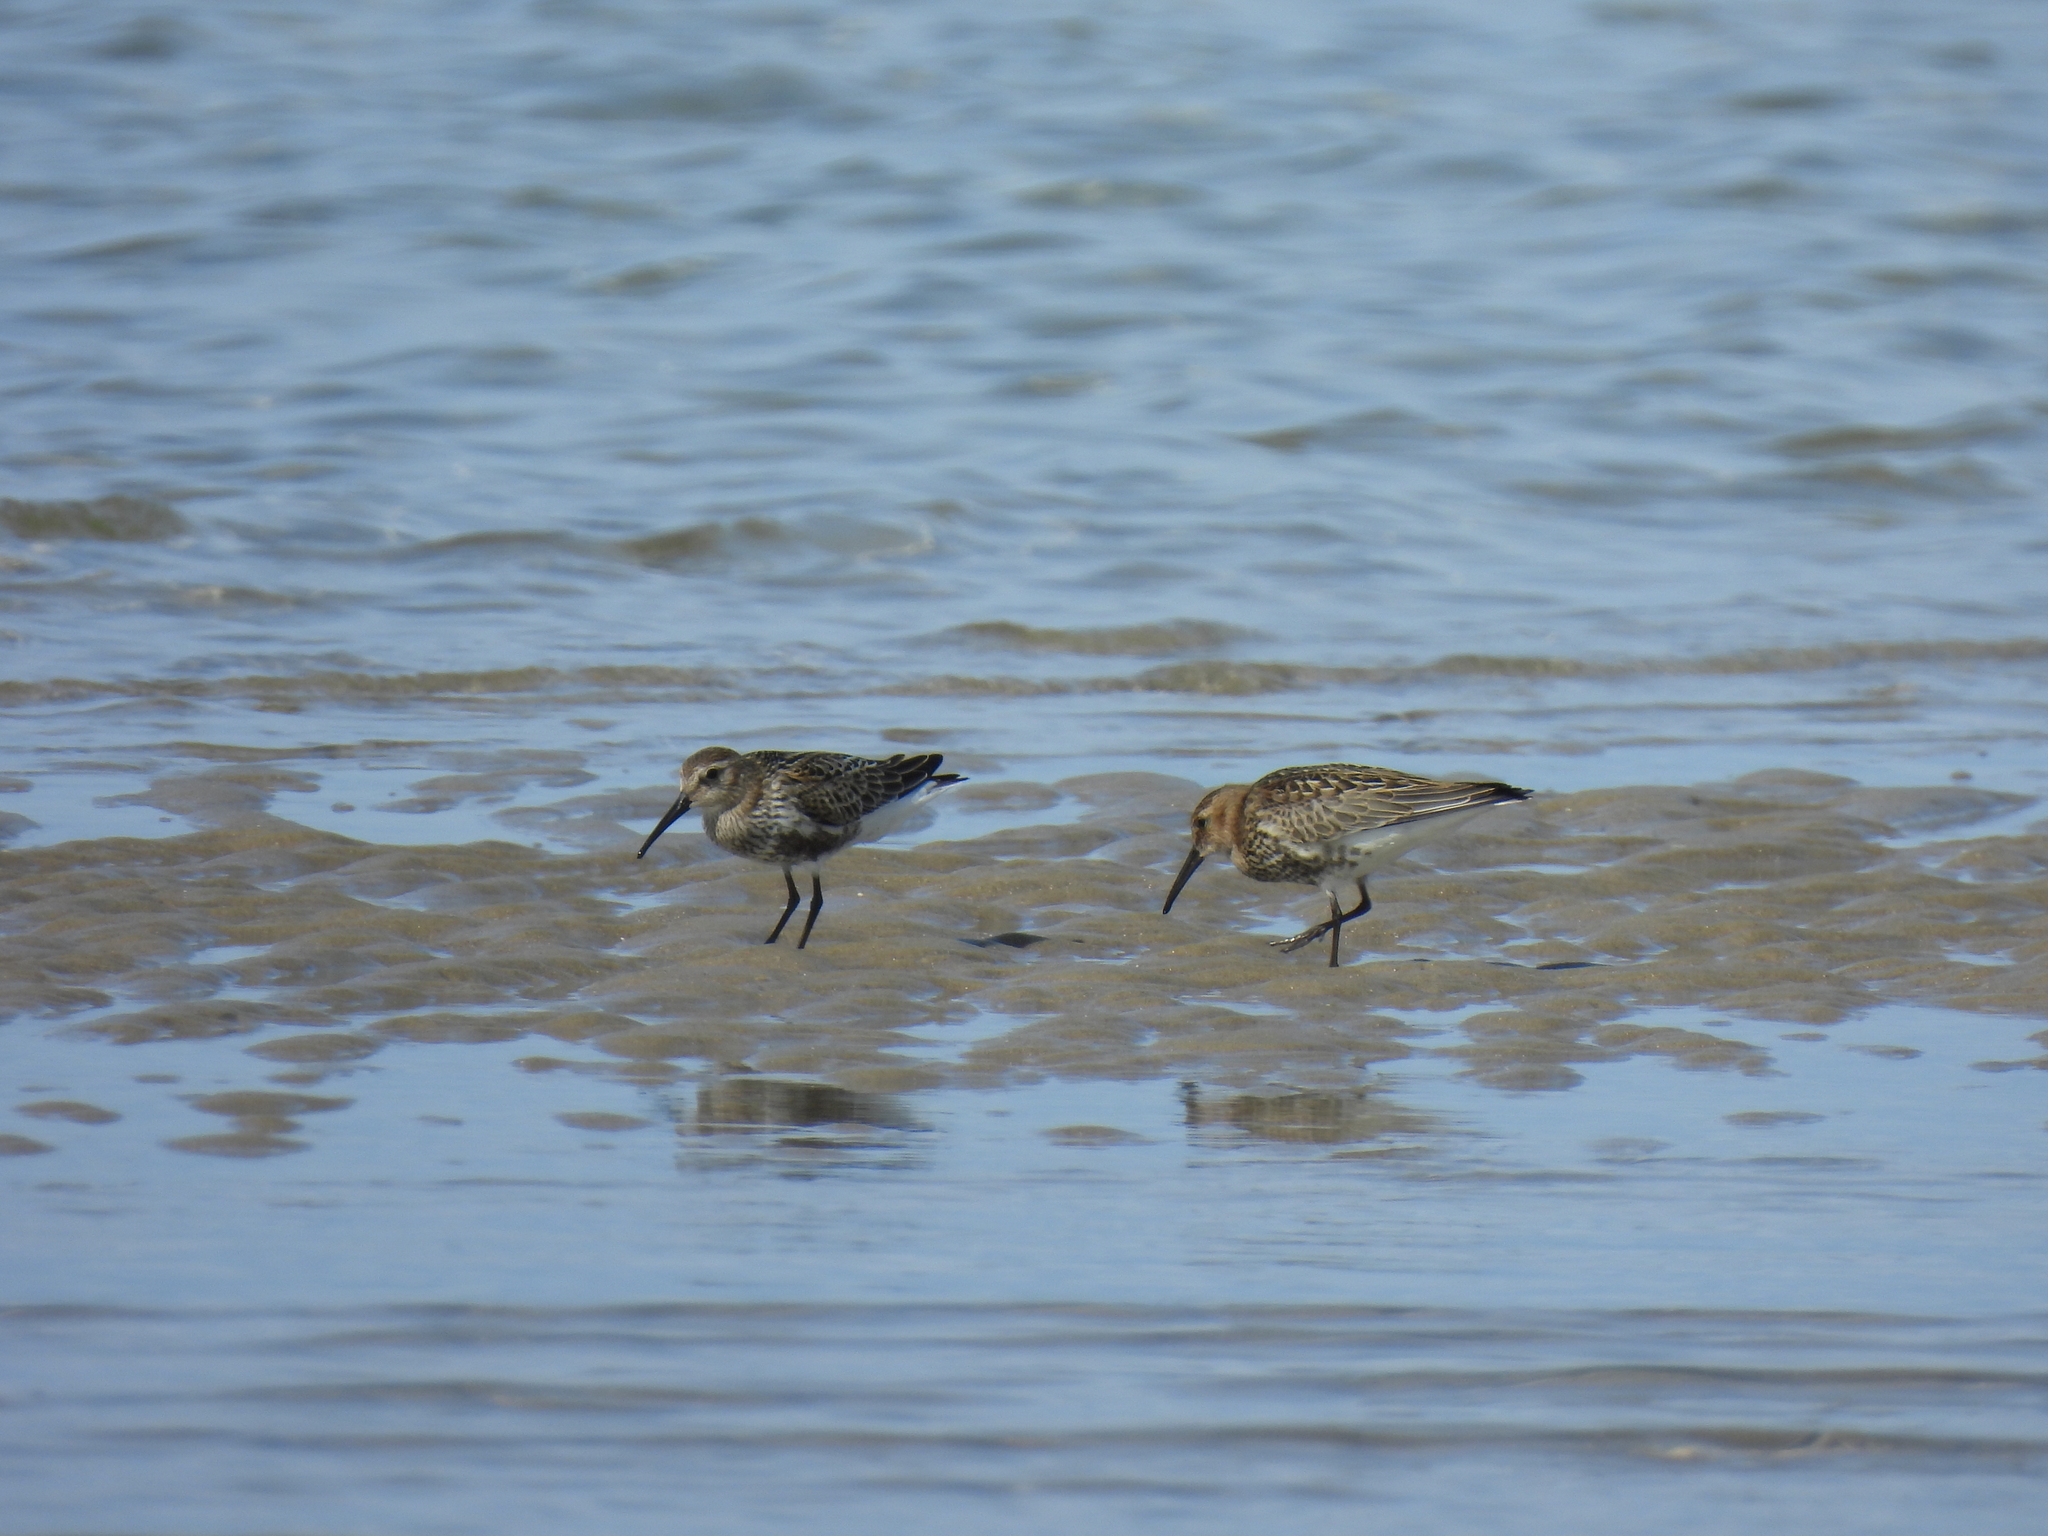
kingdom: Animalia
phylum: Chordata
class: Aves
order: Charadriiformes
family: Scolopacidae
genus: Calidris
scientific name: Calidris alpina
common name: Dunlin
